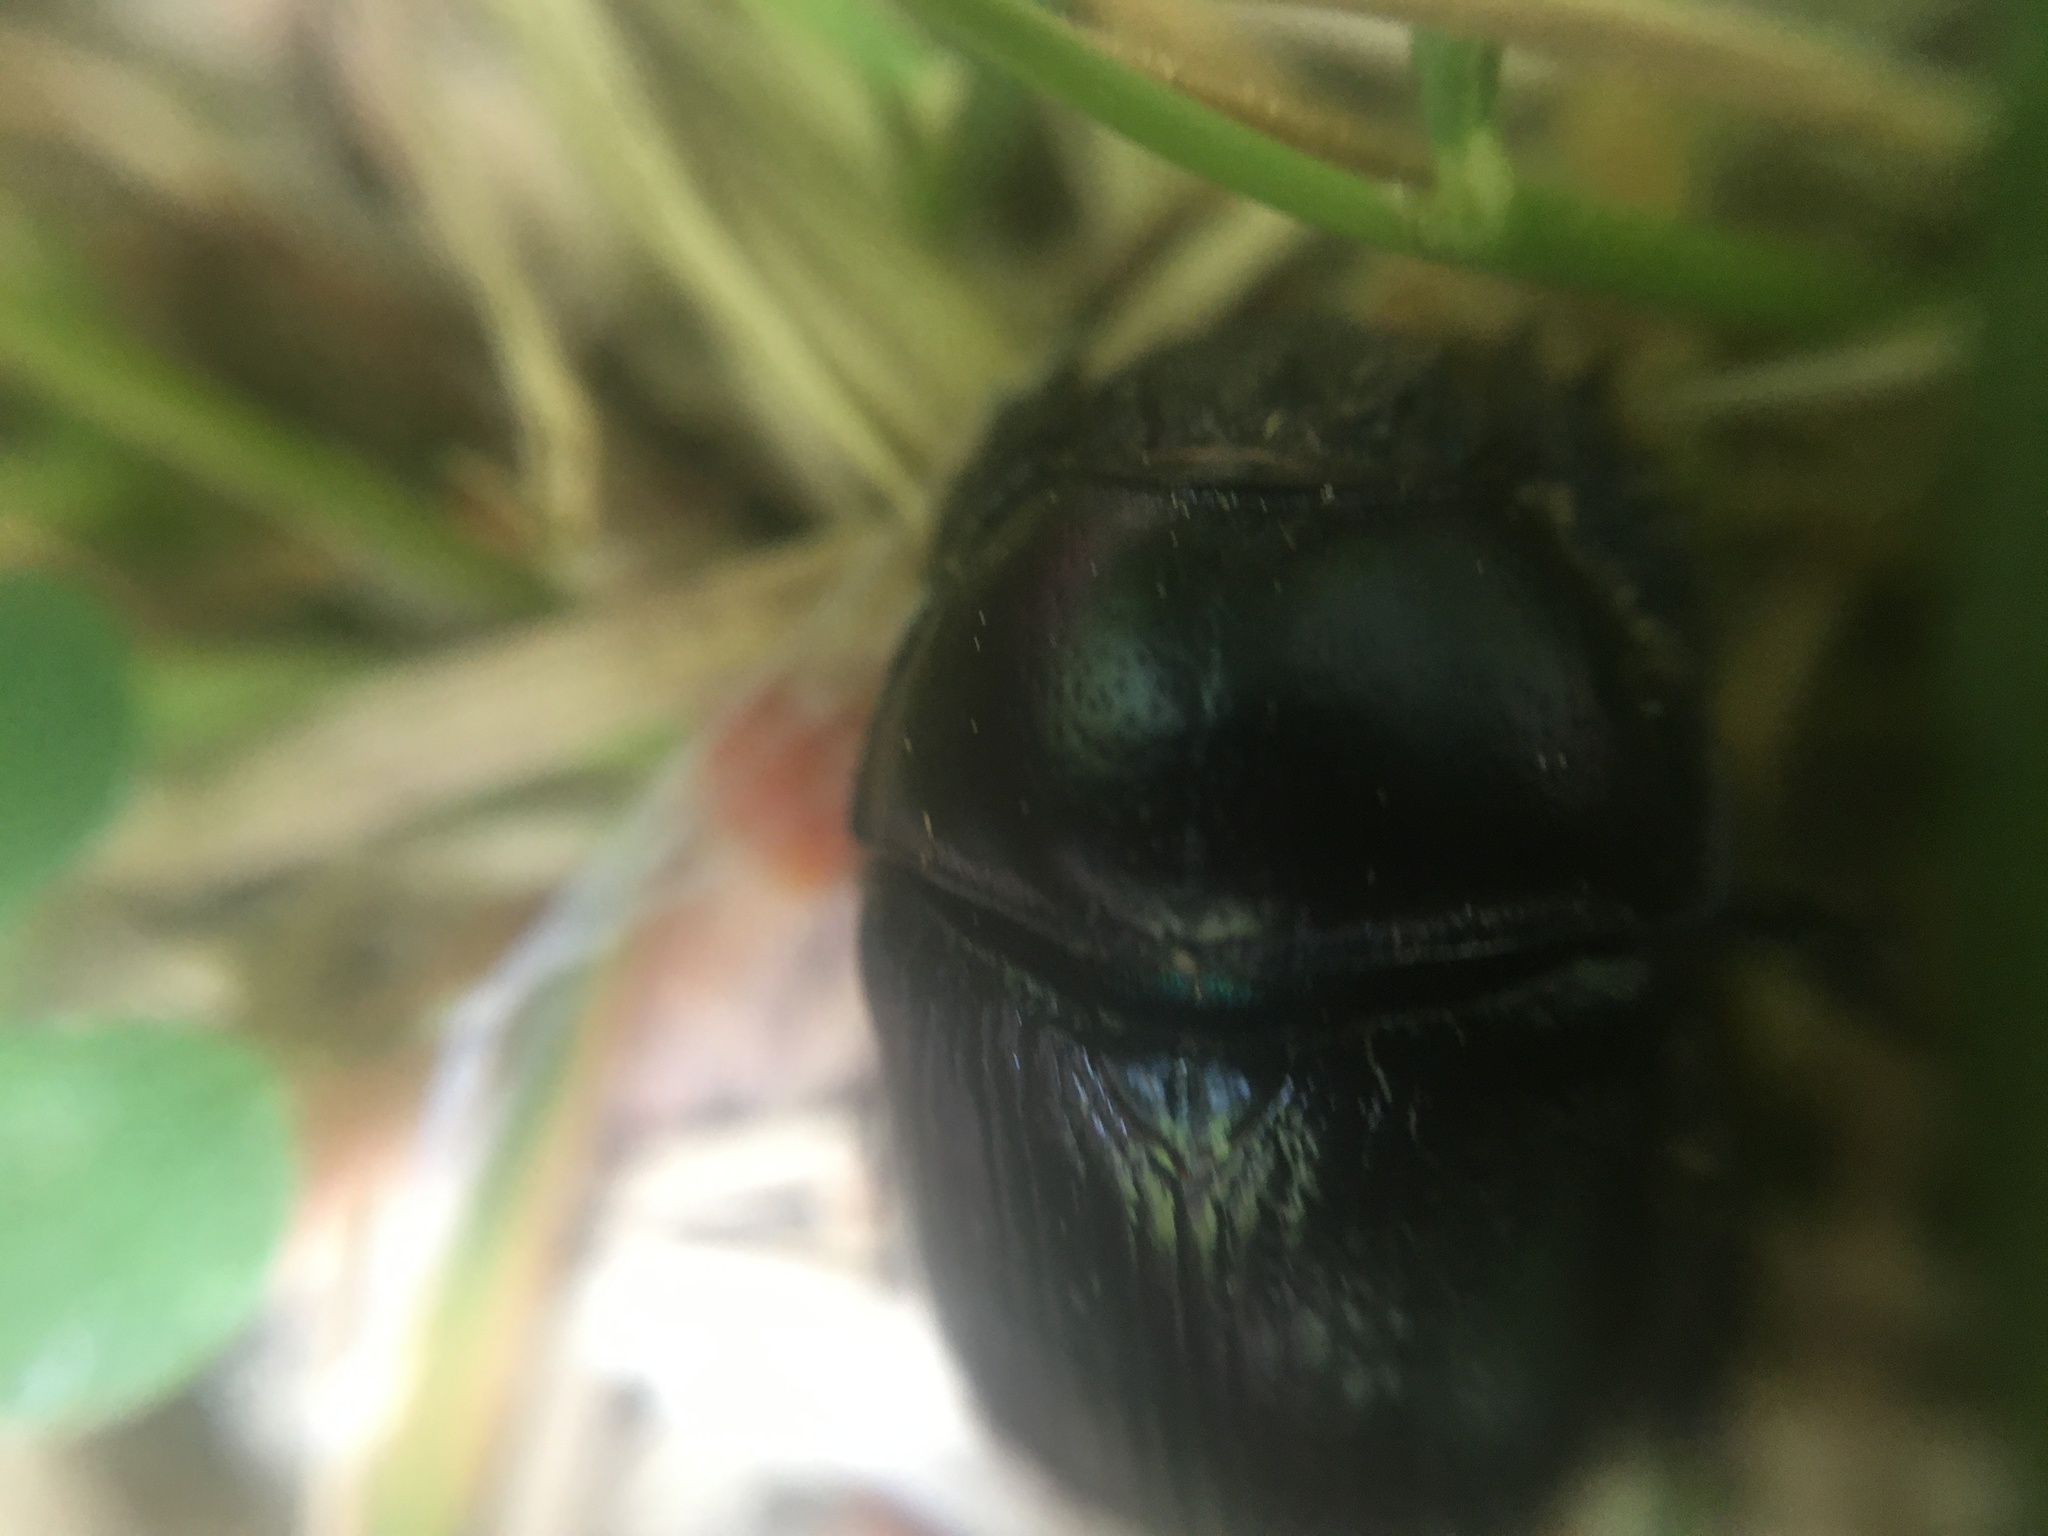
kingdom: Animalia
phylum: Arthropoda
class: Insecta
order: Coleoptera
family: Geotrupidae
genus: Anoplotrupes
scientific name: Anoplotrupes stercorosus
